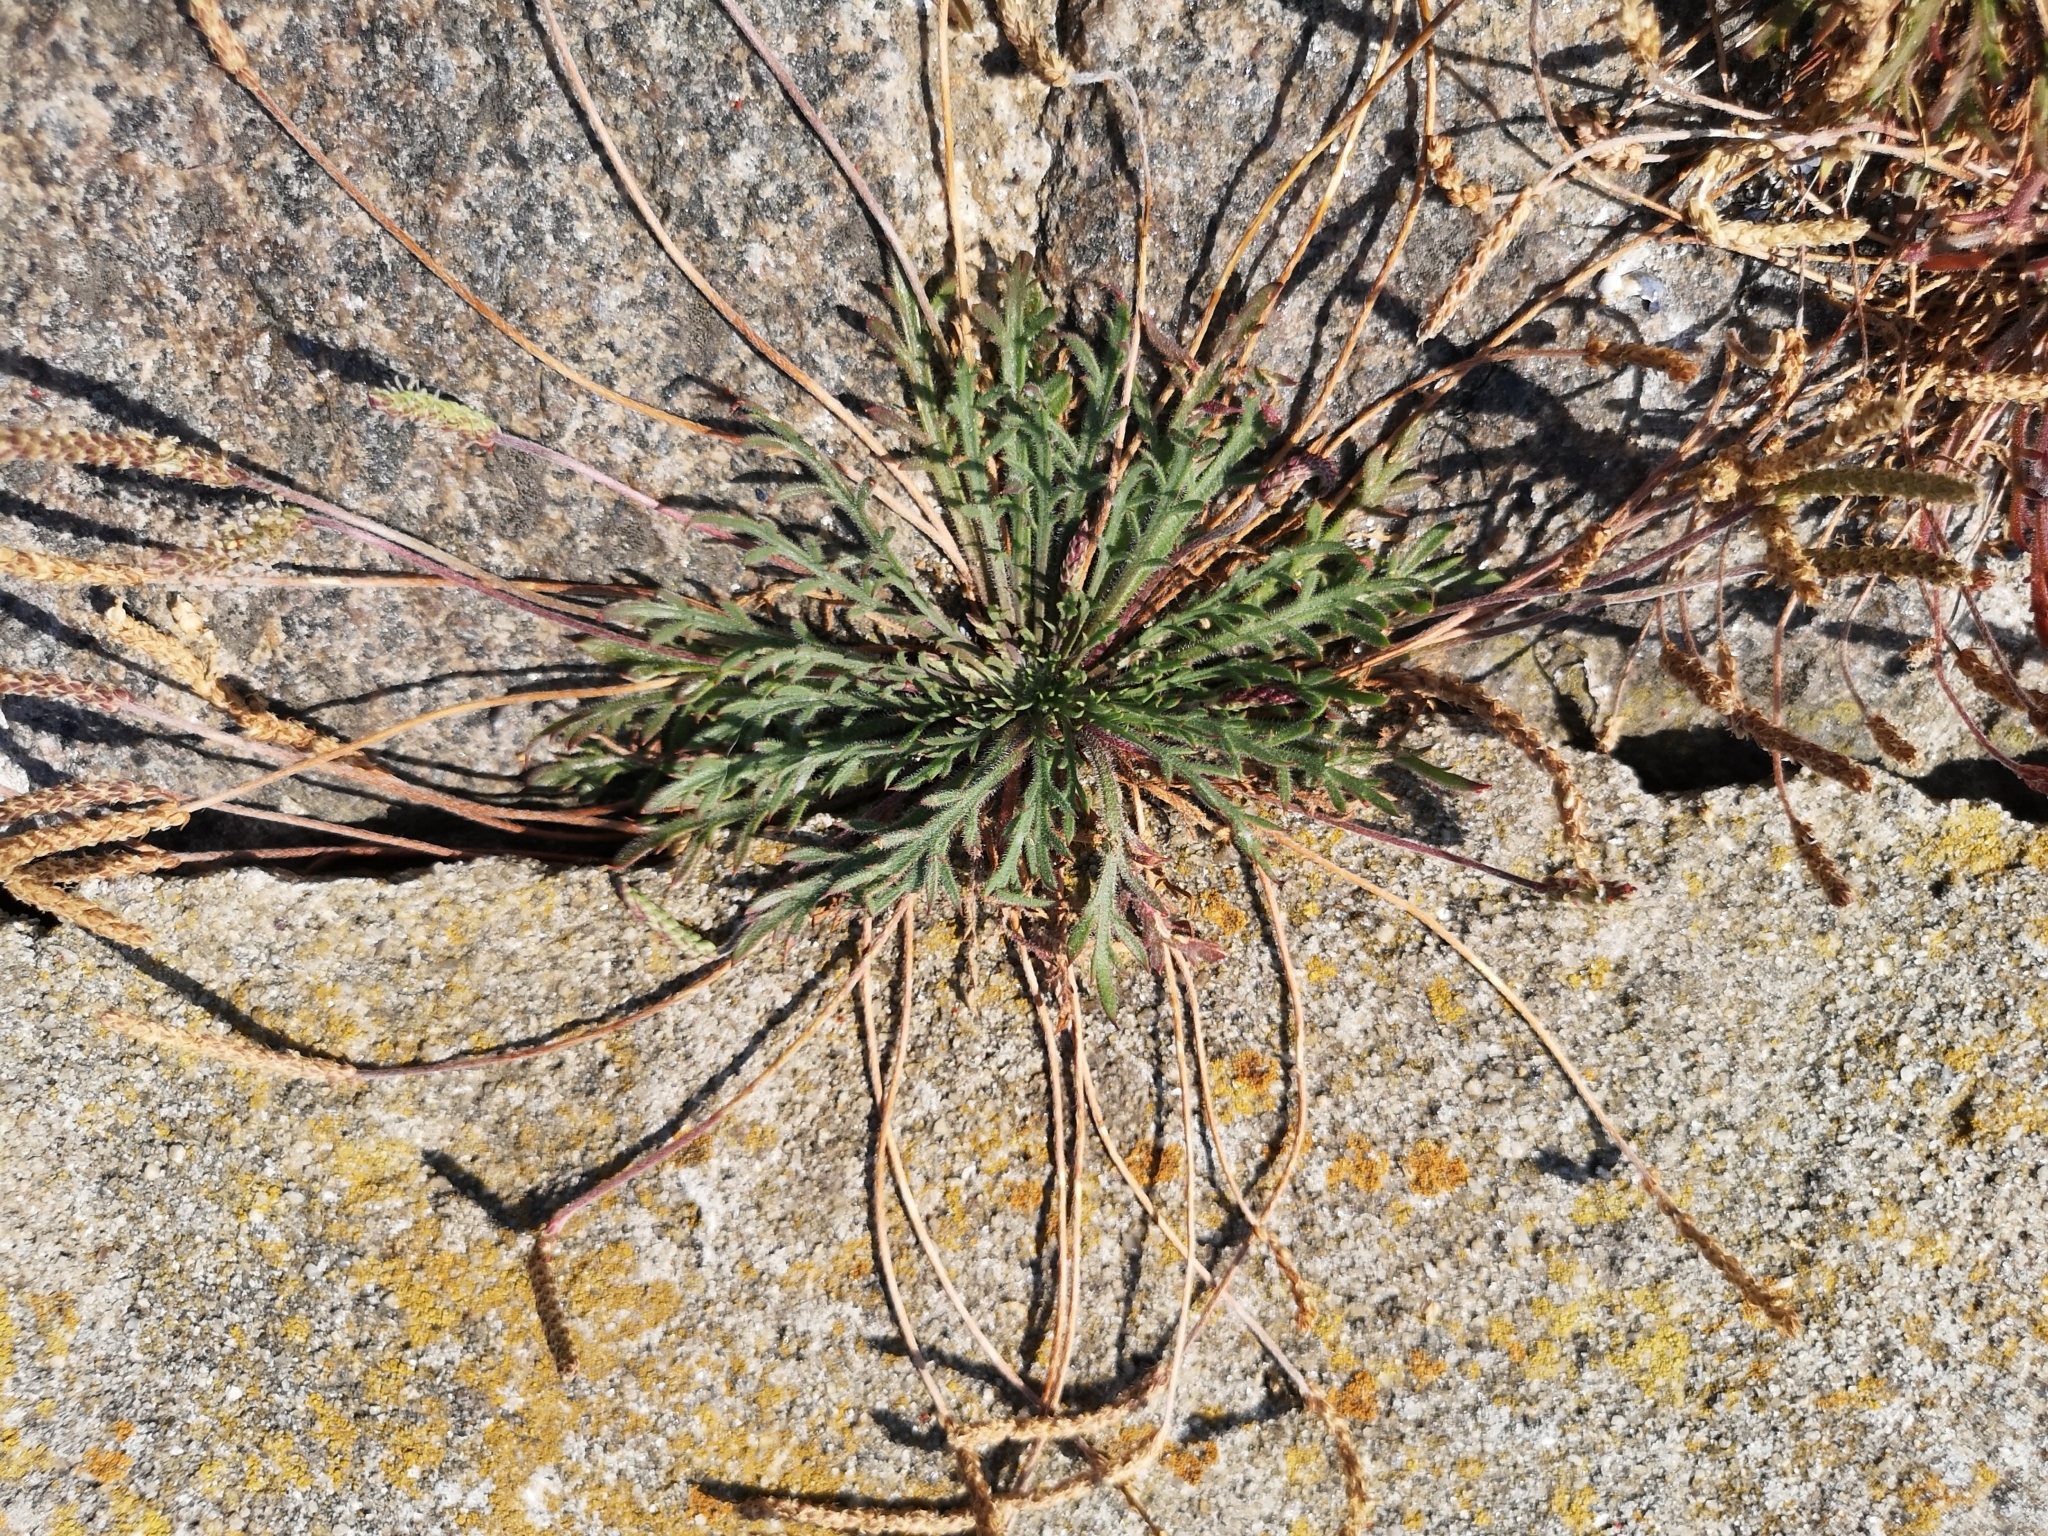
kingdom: Plantae
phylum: Tracheophyta
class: Magnoliopsida
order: Lamiales
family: Plantaginaceae
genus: Plantago
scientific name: Plantago coronopus
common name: Buck's-horn plantain
